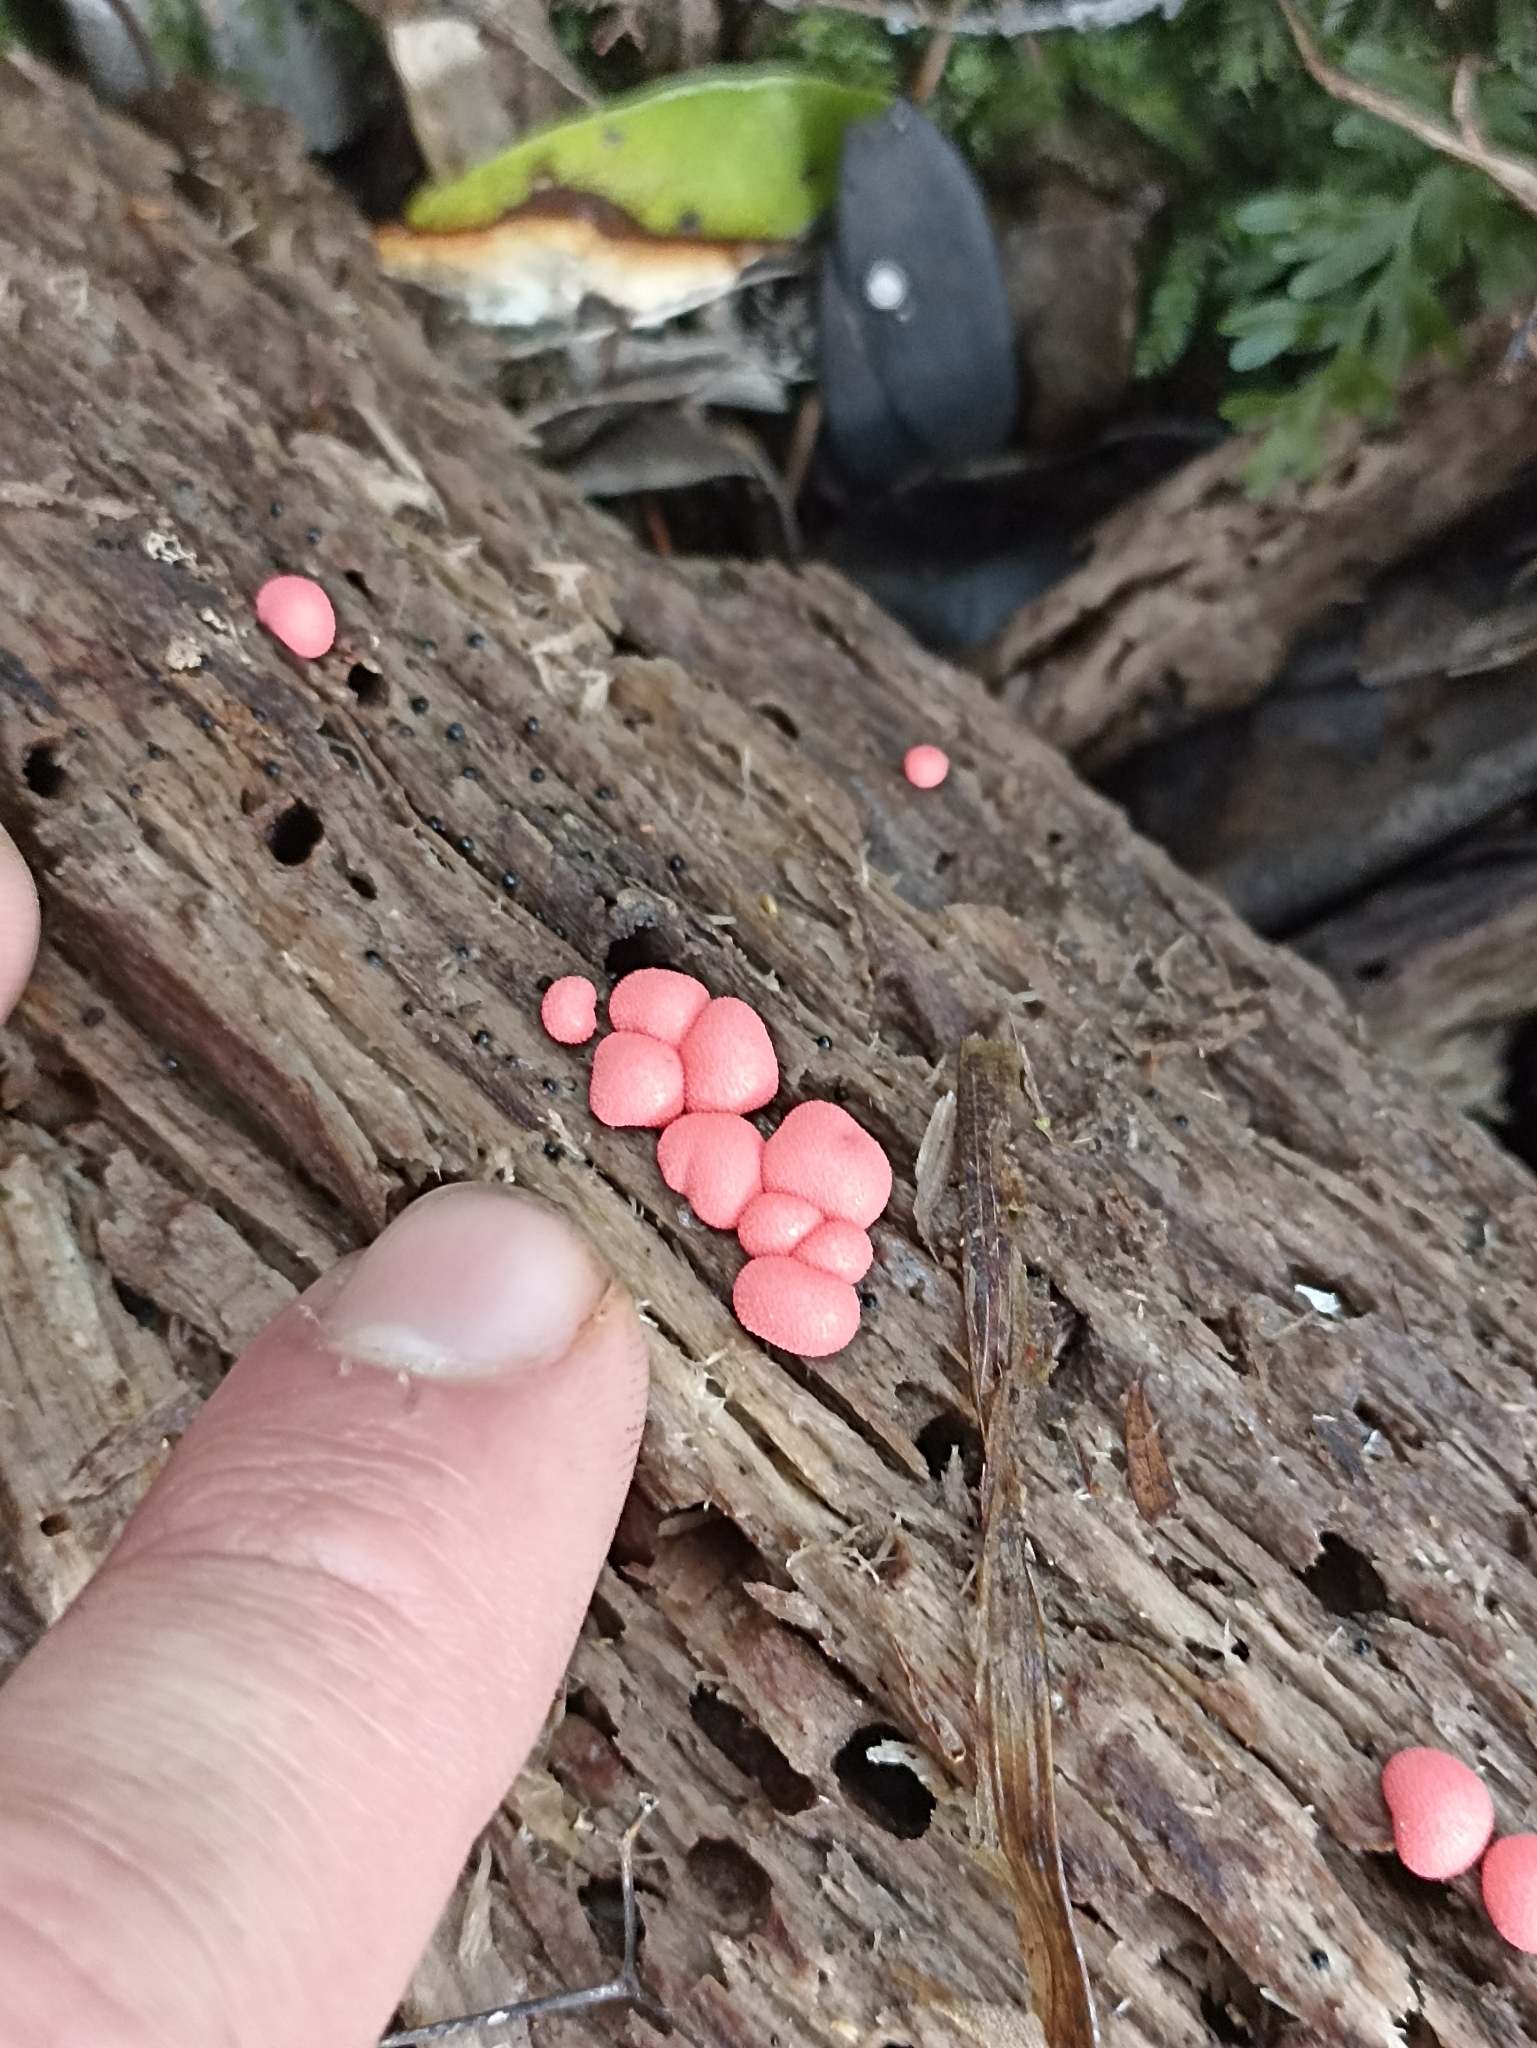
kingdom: Protozoa
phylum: Mycetozoa
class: Myxomycetes
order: Cribrariales
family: Tubiferaceae
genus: Lycogala
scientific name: Lycogala epidendrum
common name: Wolf's milk
